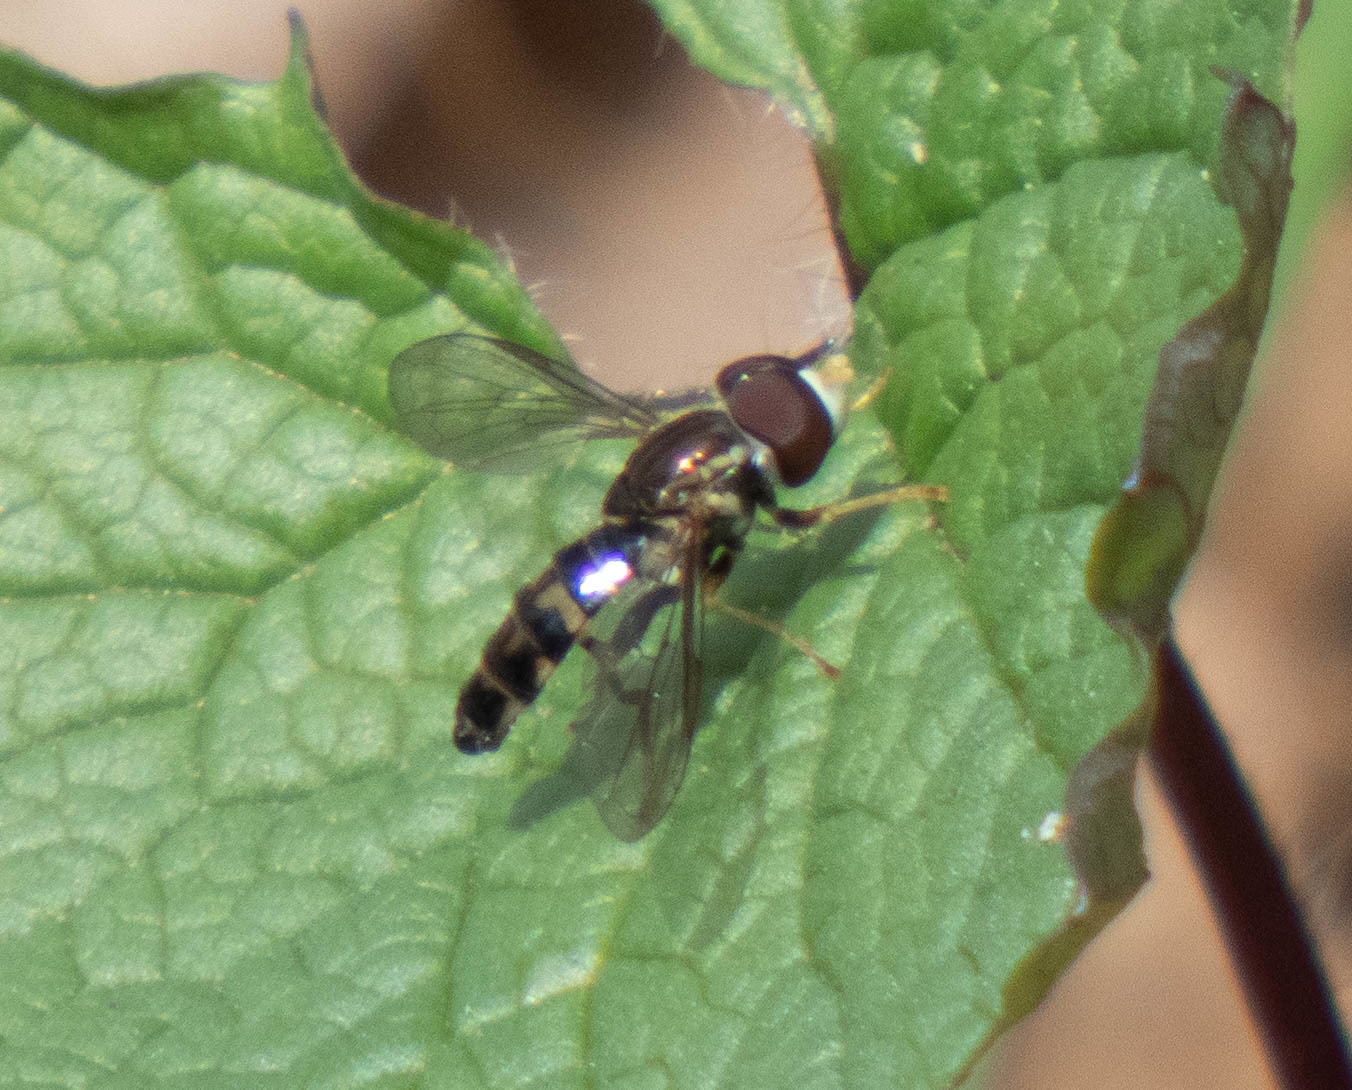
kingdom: Animalia
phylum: Arthropoda
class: Insecta
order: Diptera
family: Syrphidae
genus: Toxomerus
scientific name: Toxomerus geminatus
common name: Eastern calligrapher
